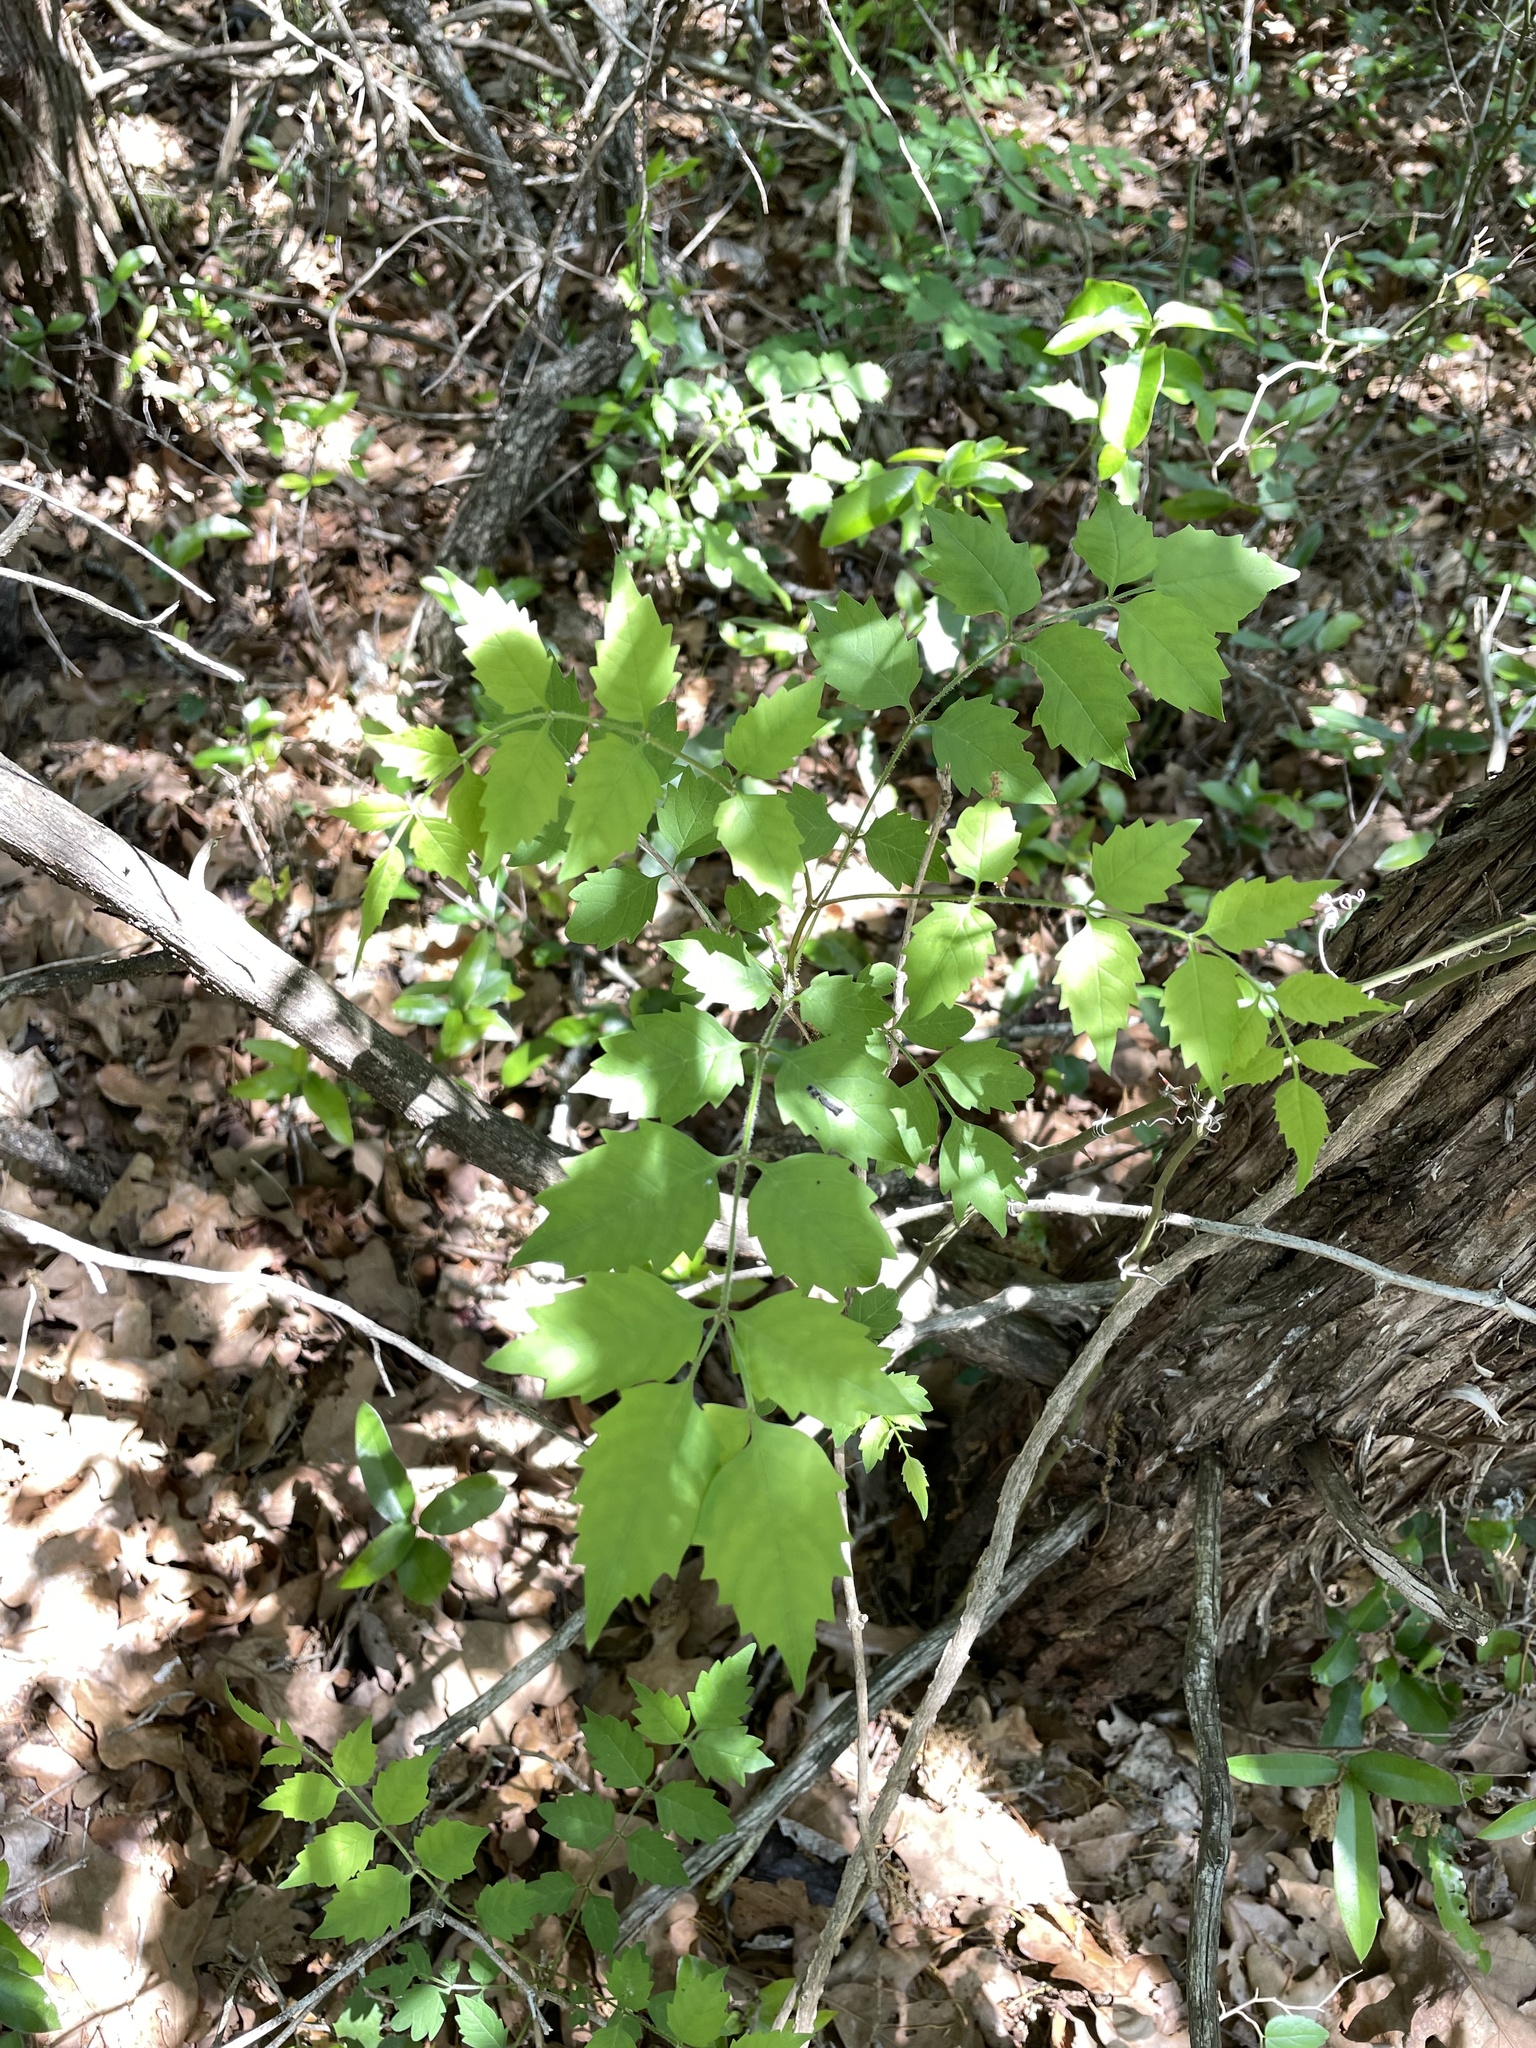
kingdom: Plantae
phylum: Tracheophyta
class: Magnoliopsida
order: Lamiales
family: Bignoniaceae
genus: Campsis
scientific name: Campsis radicans
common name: Trumpet-creeper
